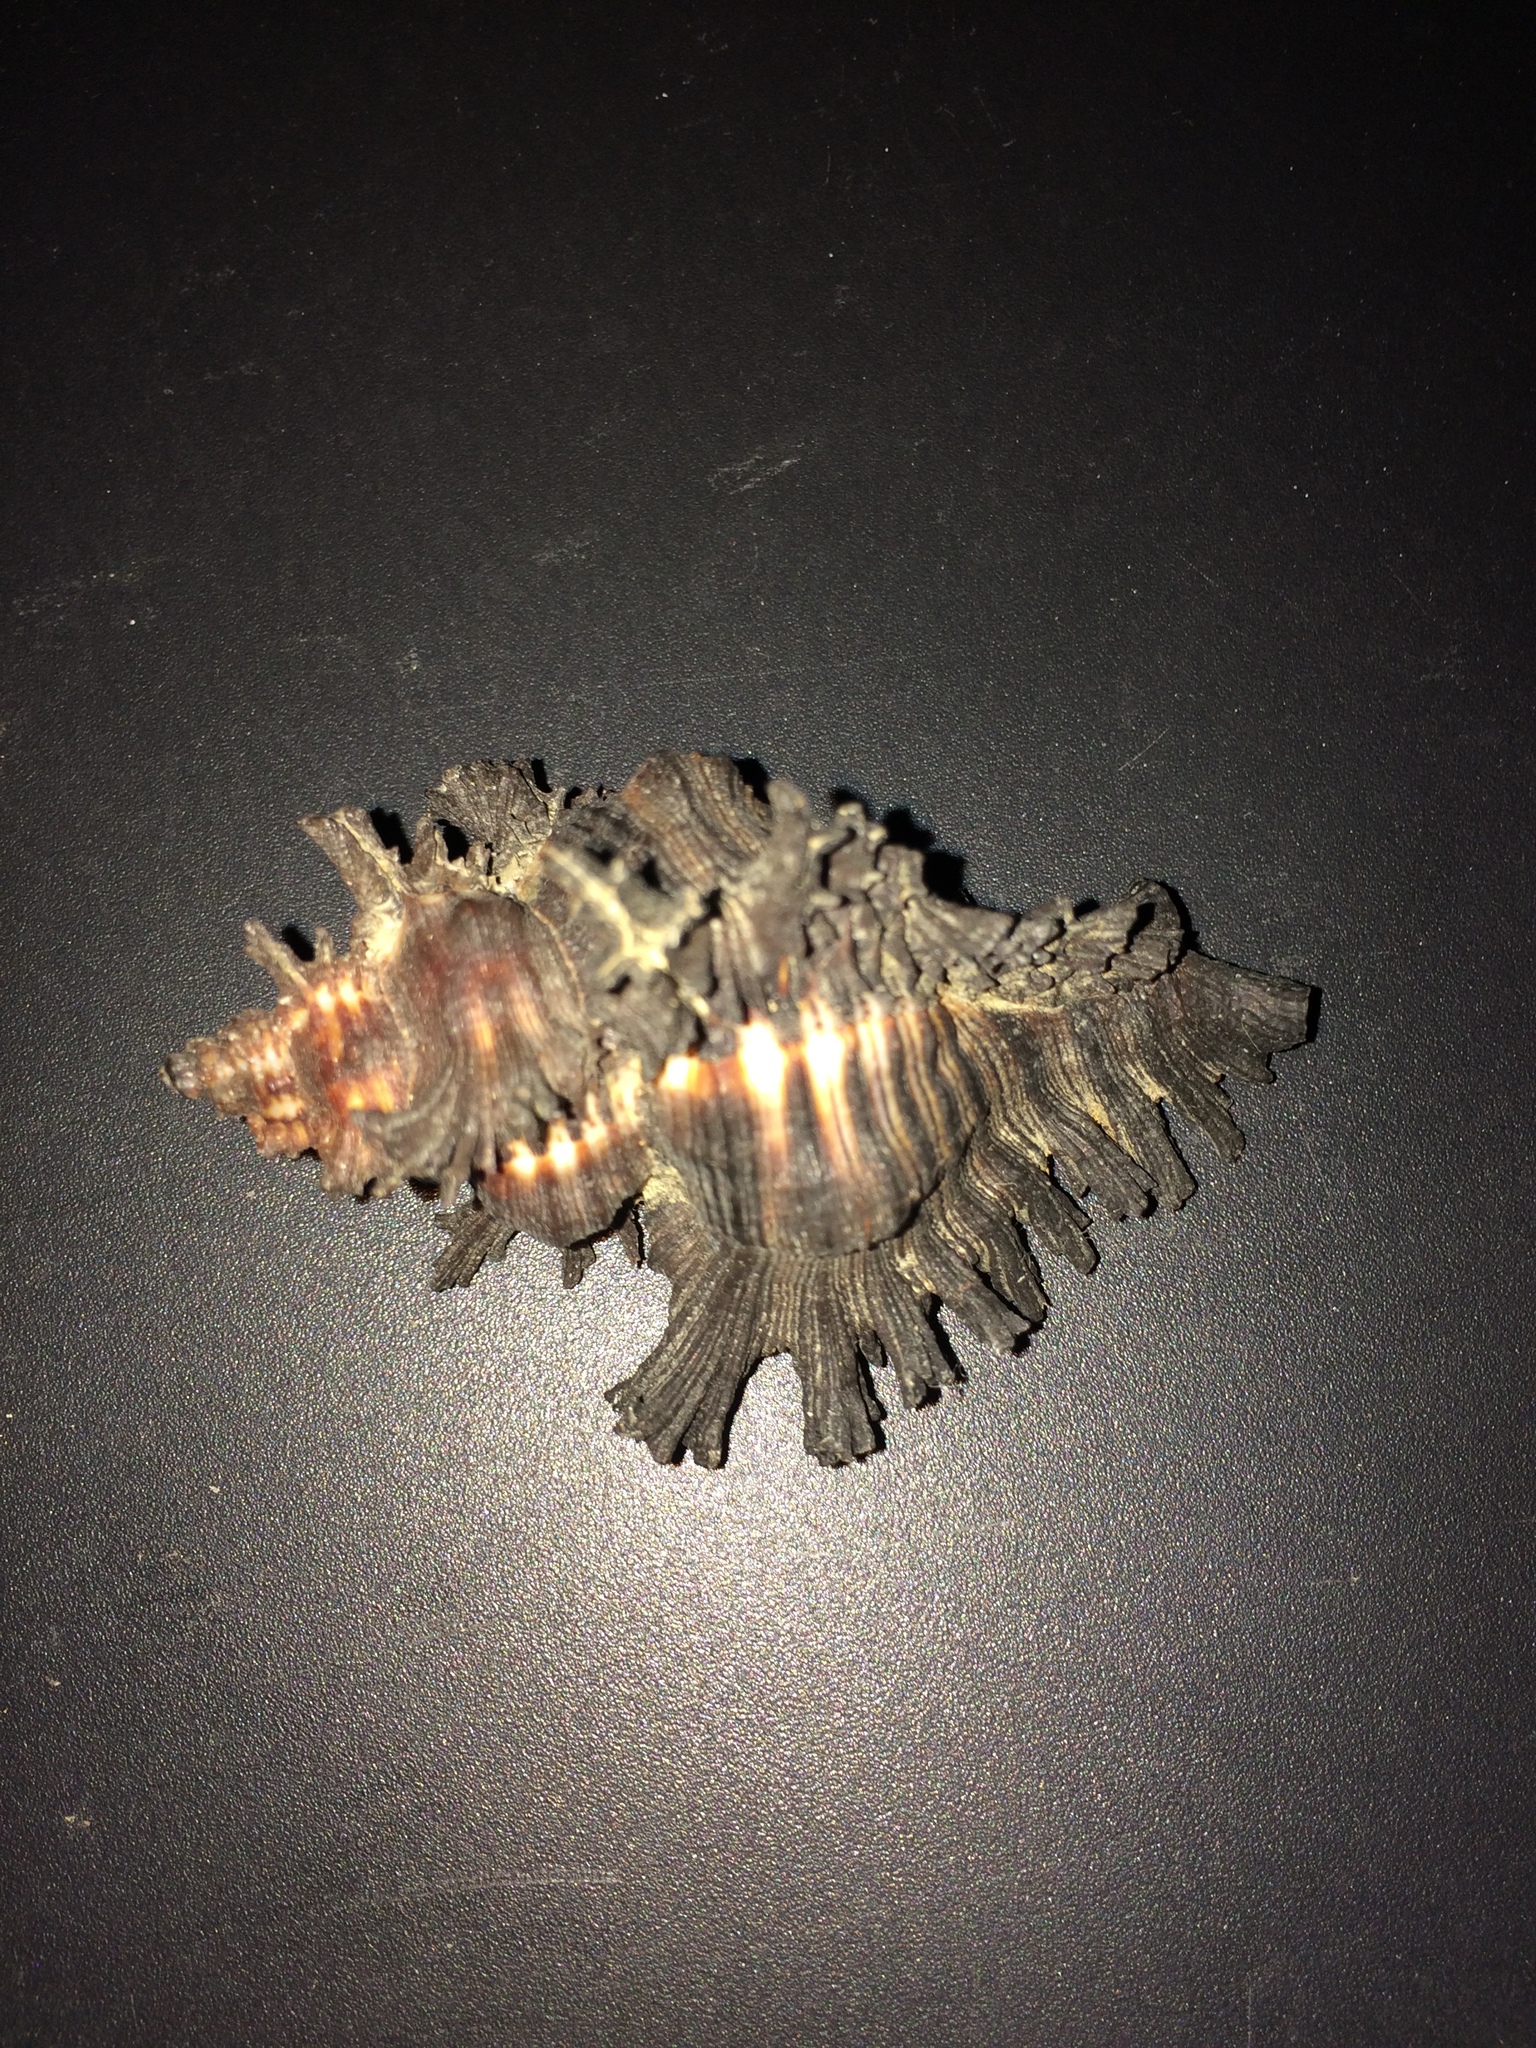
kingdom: Animalia
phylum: Mollusca
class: Gastropoda
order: Neogastropoda
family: Muricidae
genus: Chicoreus
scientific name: Chicoreus brunneus
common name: Adusta murex
